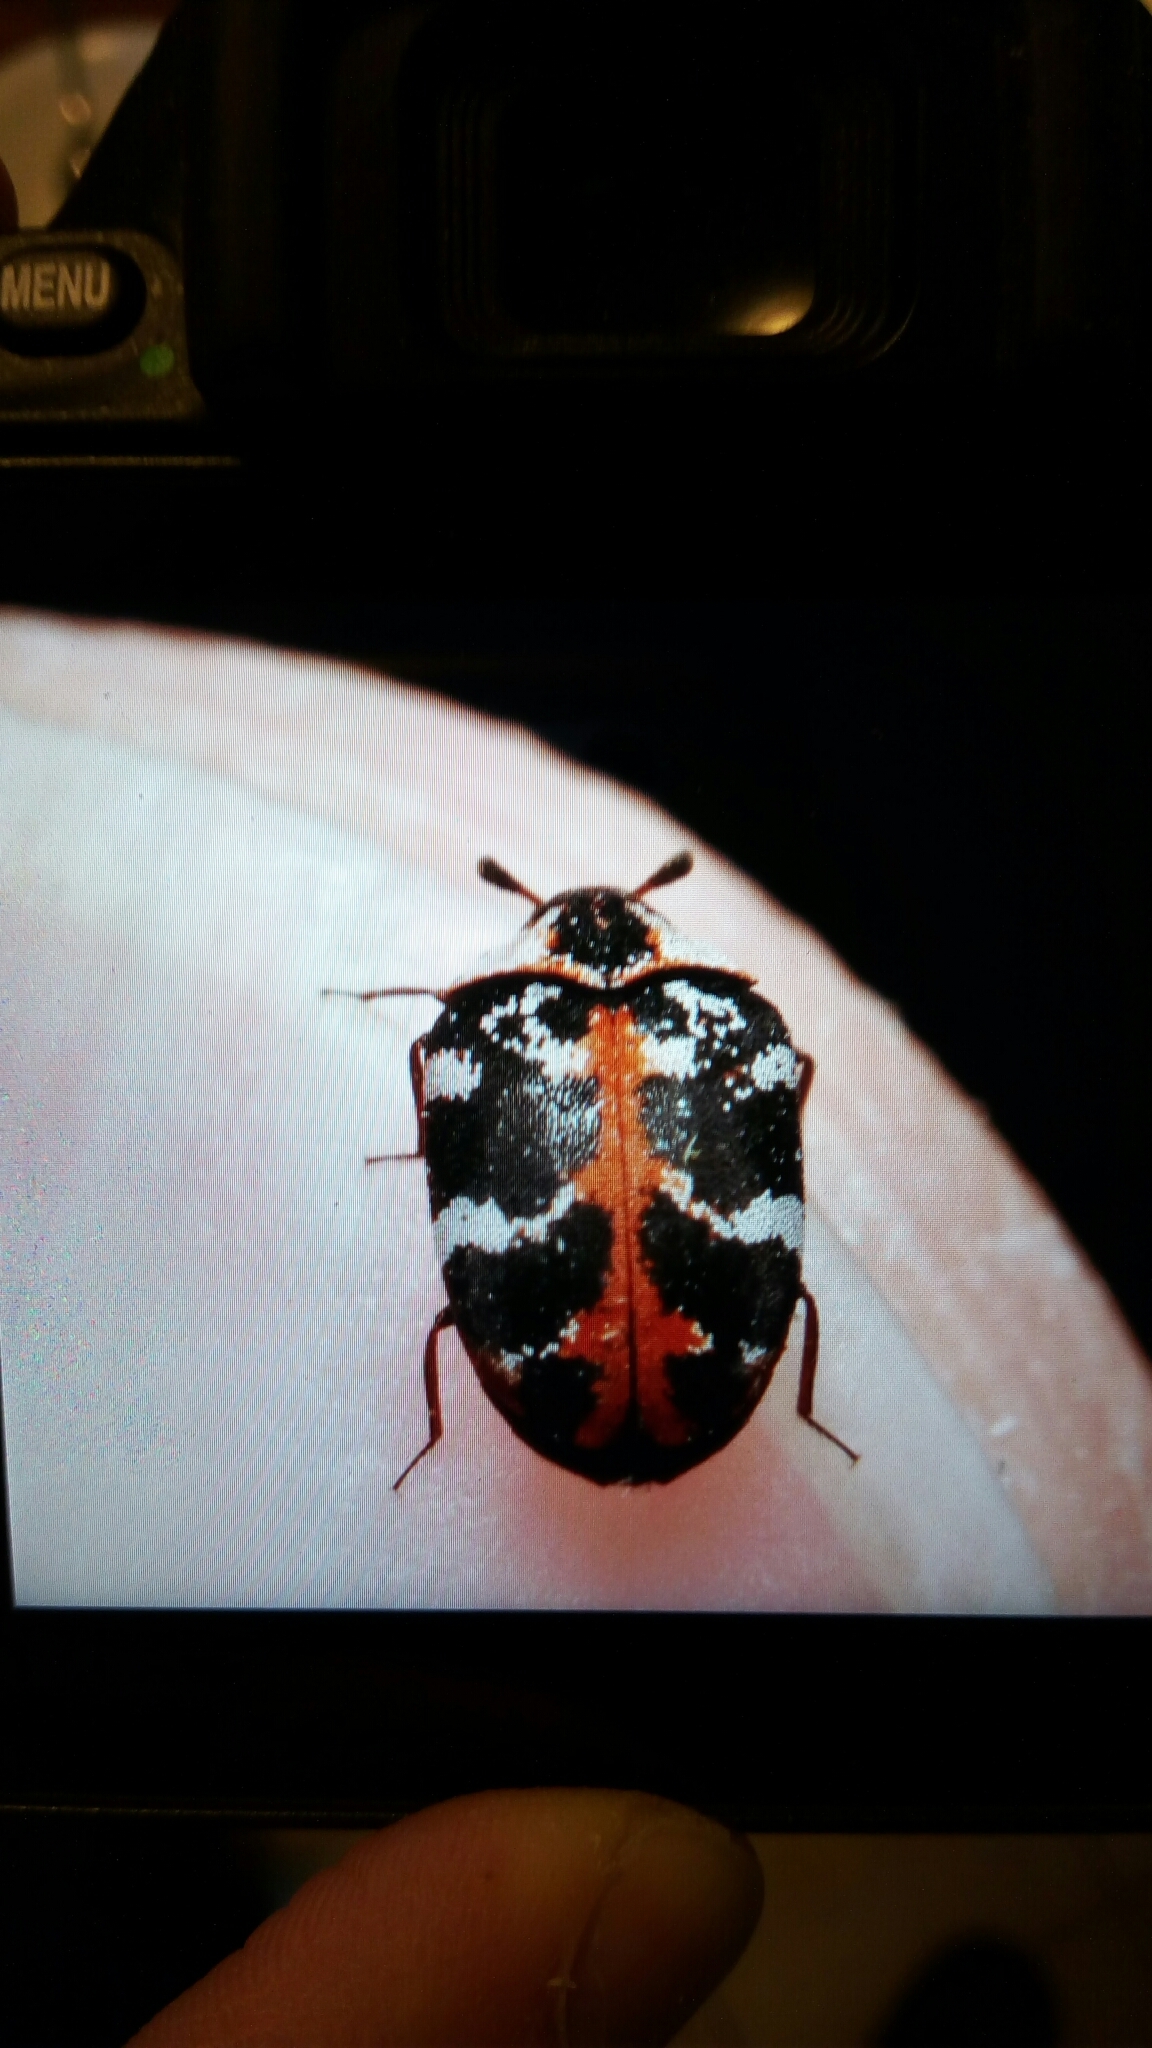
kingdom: Animalia
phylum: Arthropoda
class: Insecta
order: Coleoptera
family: Dermestidae
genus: Anthrenus
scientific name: Anthrenus scrophulariae
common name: Buffalo carpet beetle
